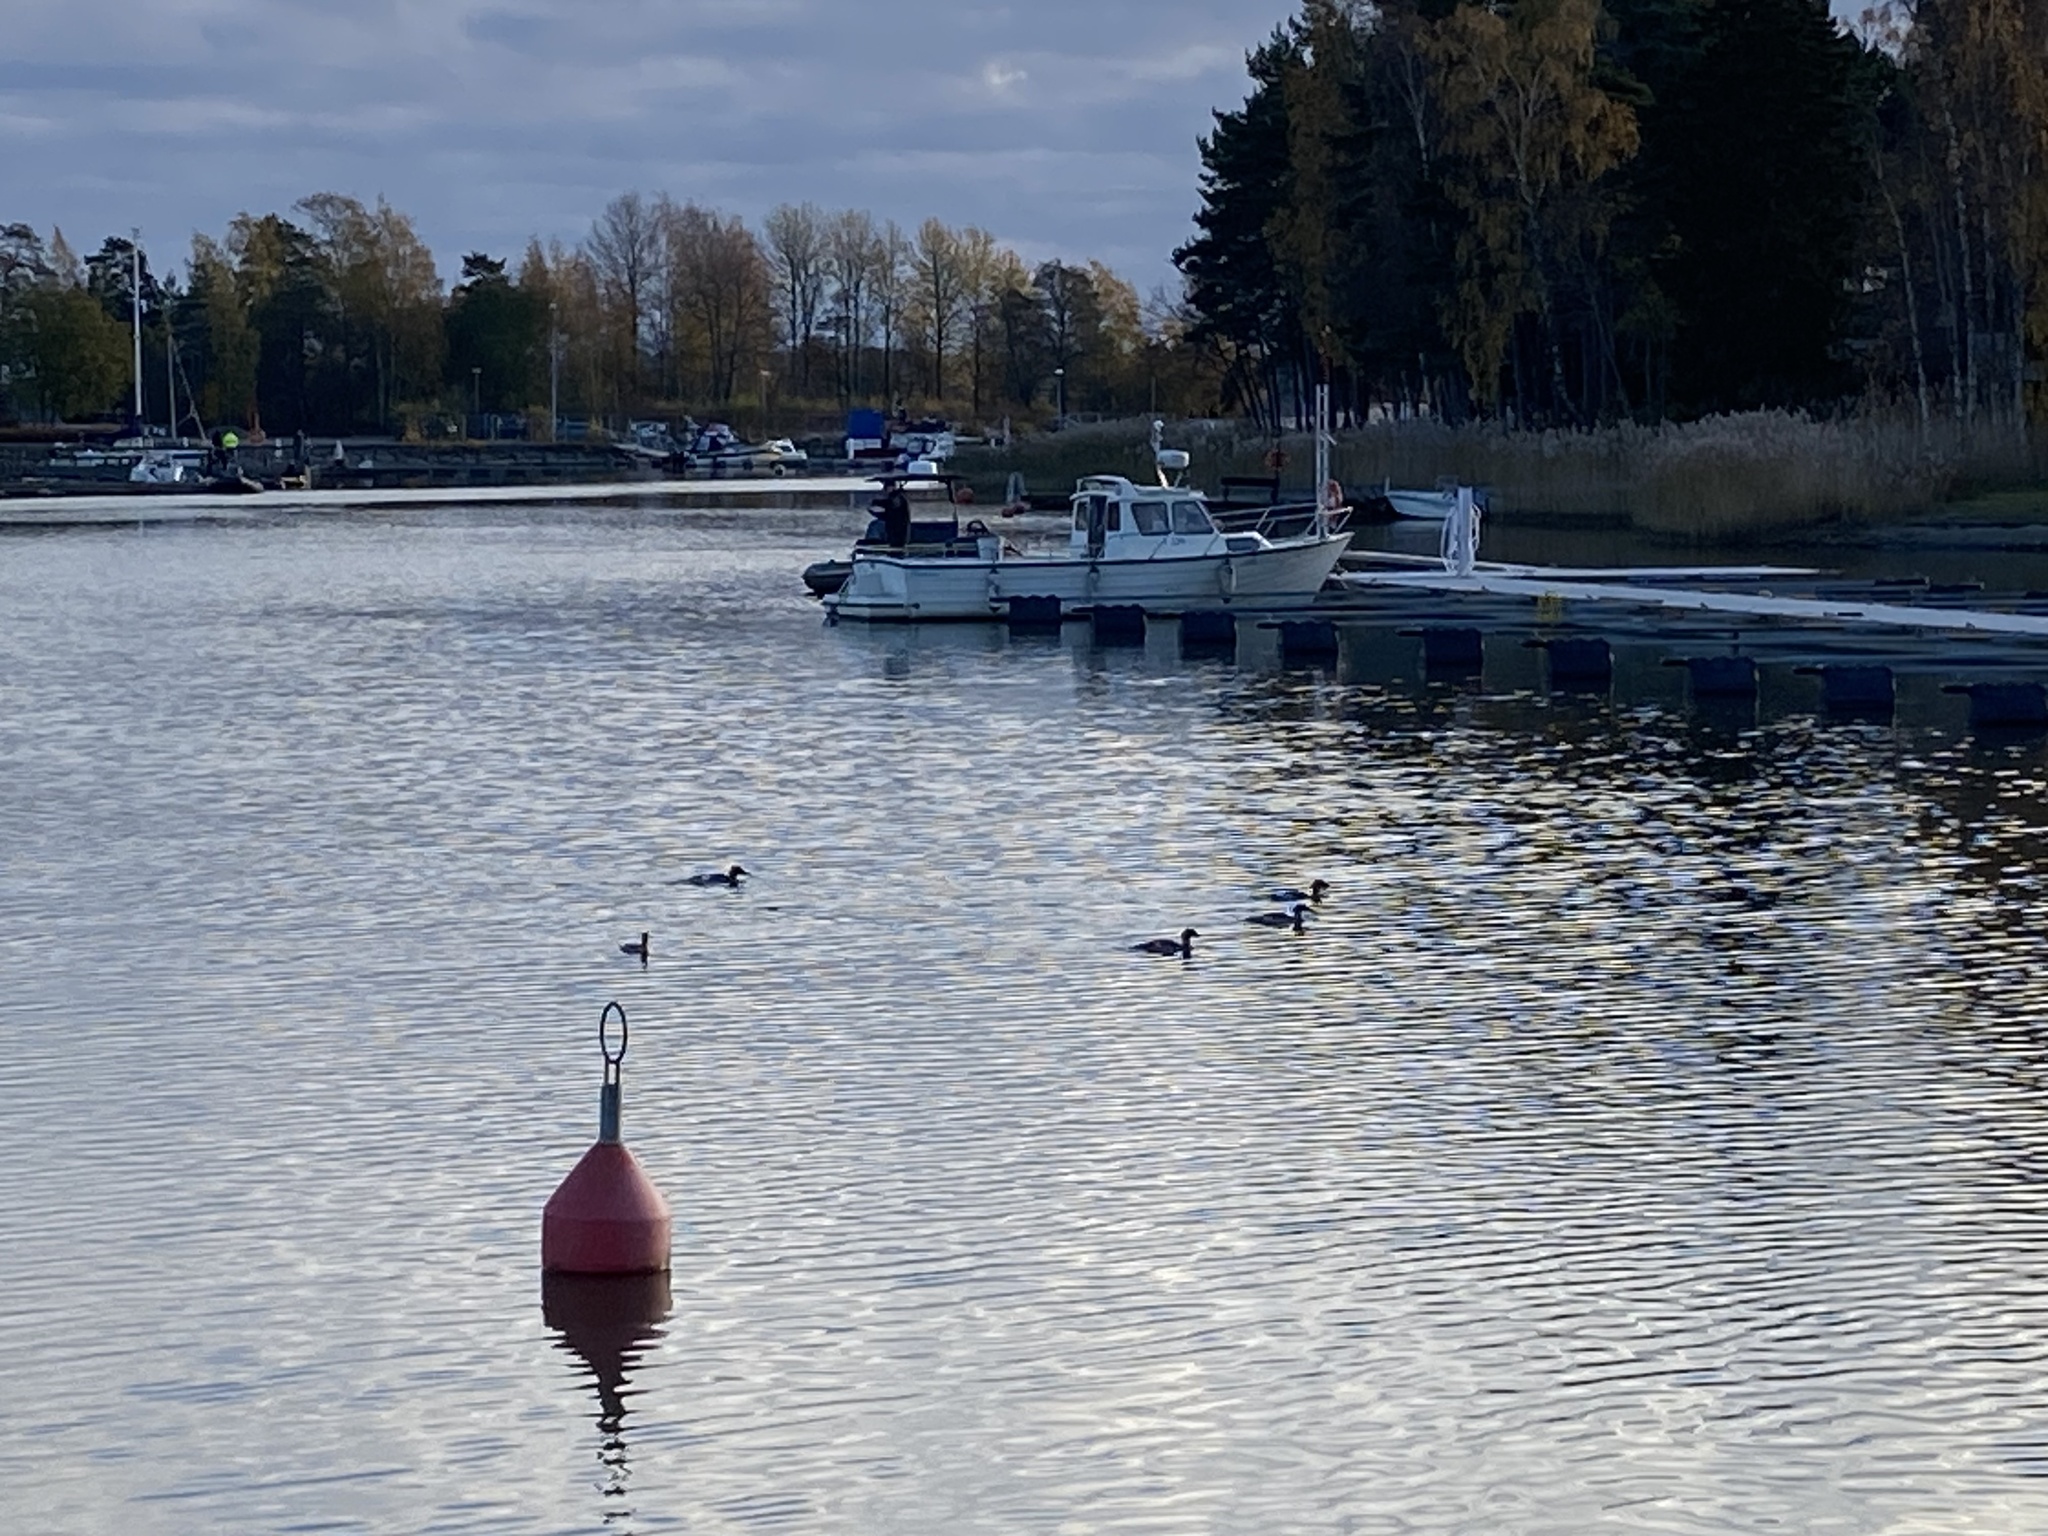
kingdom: Animalia
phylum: Chordata
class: Aves
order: Anseriformes
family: Anatidae
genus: Mergus
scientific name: Mergus merganser
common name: Common merganser
